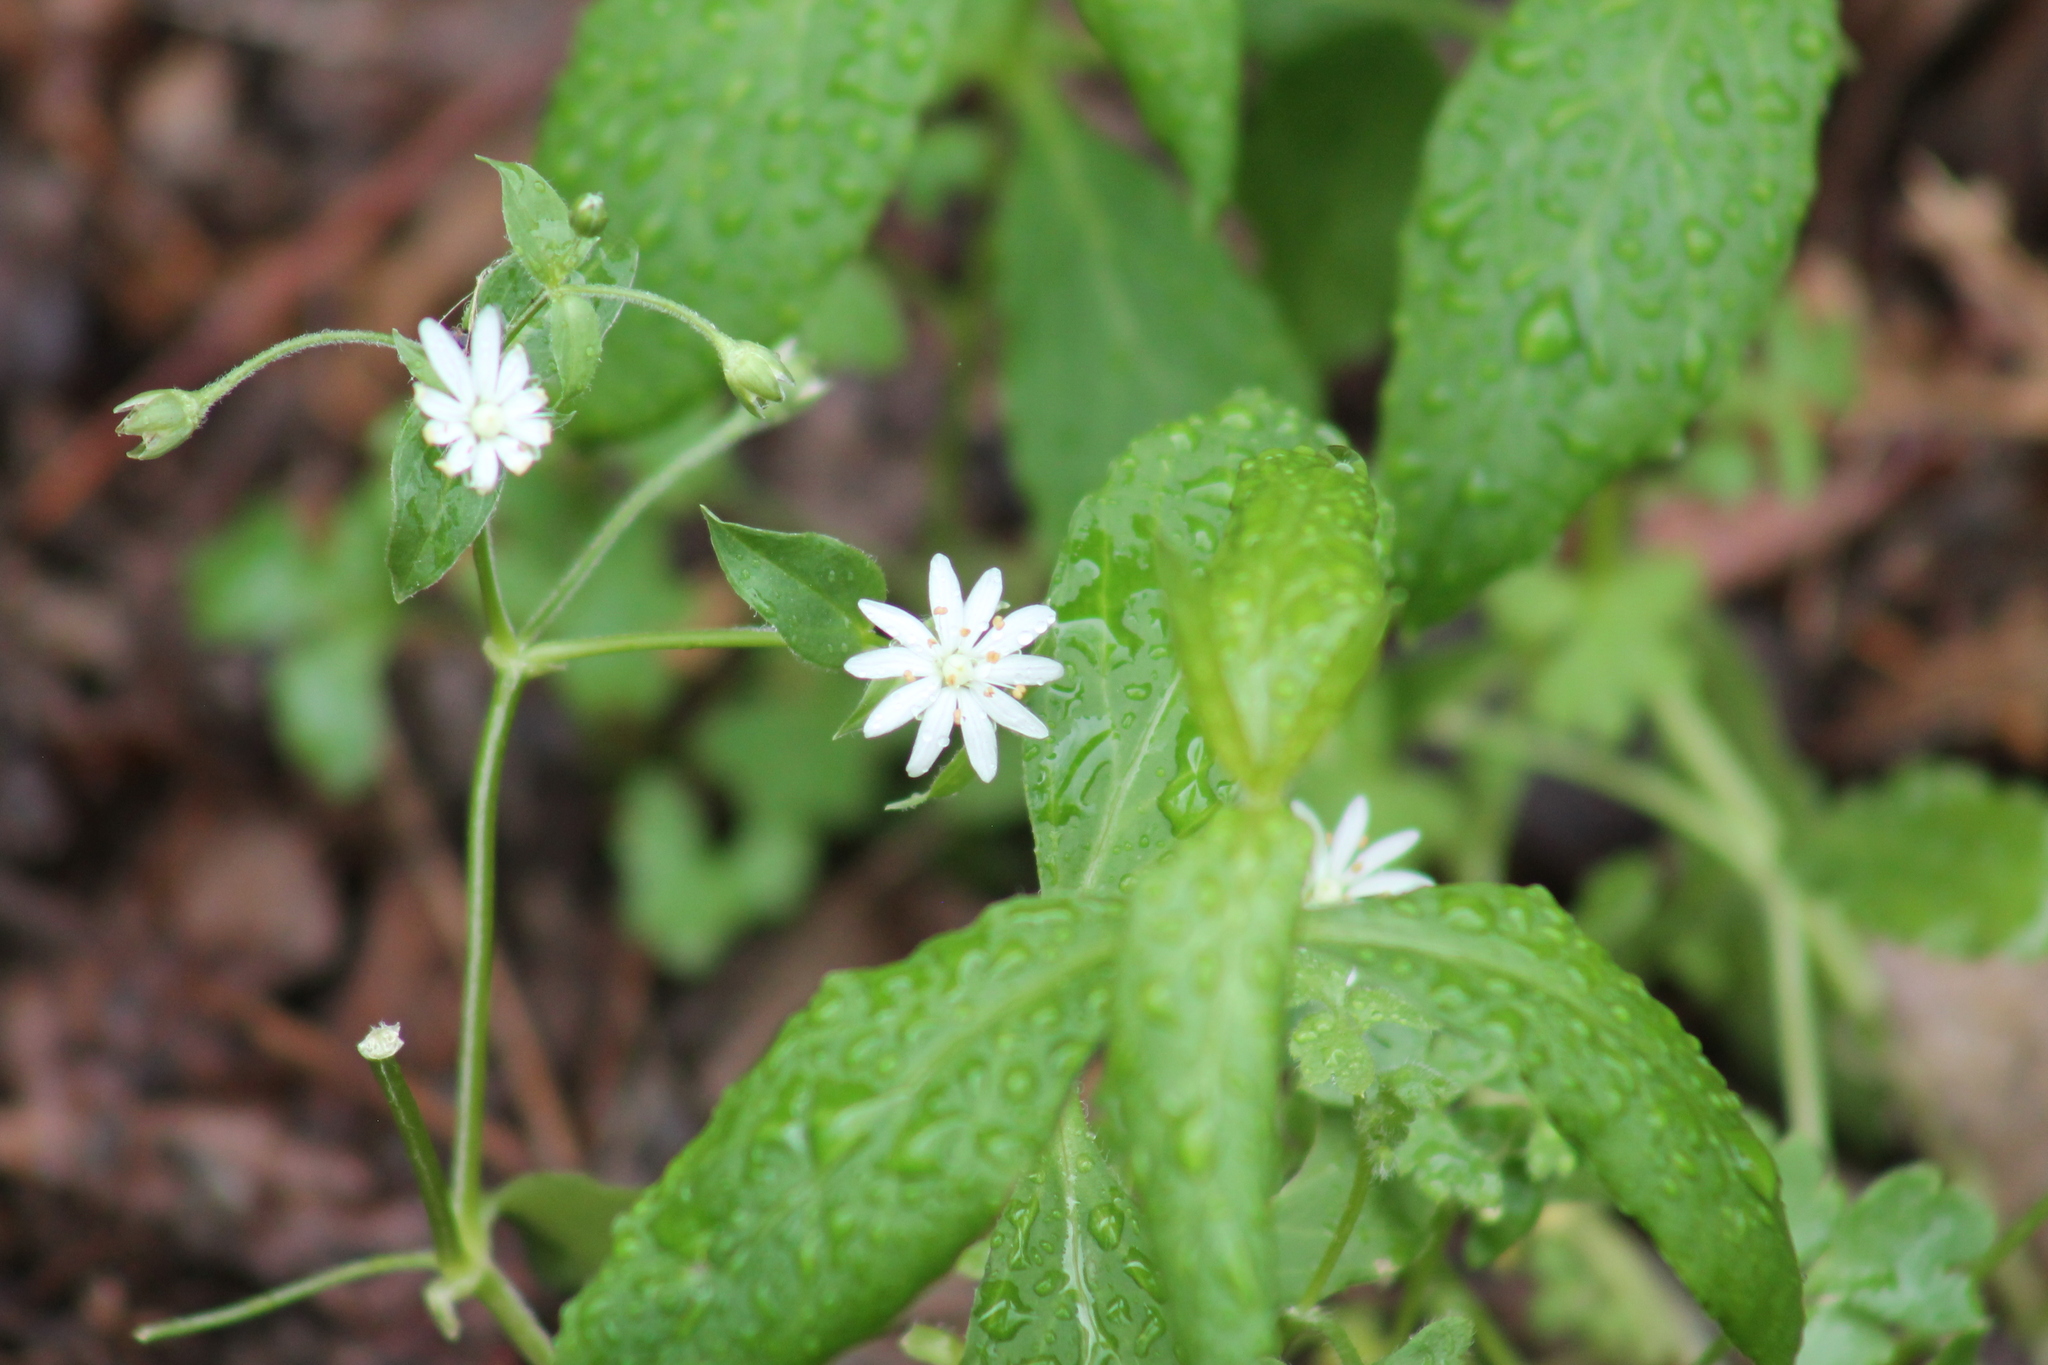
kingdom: Plantae
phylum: Tracheophyta
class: Magnoliopsida
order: Caryophyllales
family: Caryophyllaceae
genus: Stellaria
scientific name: Stellaria pubera
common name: Star chickweed
